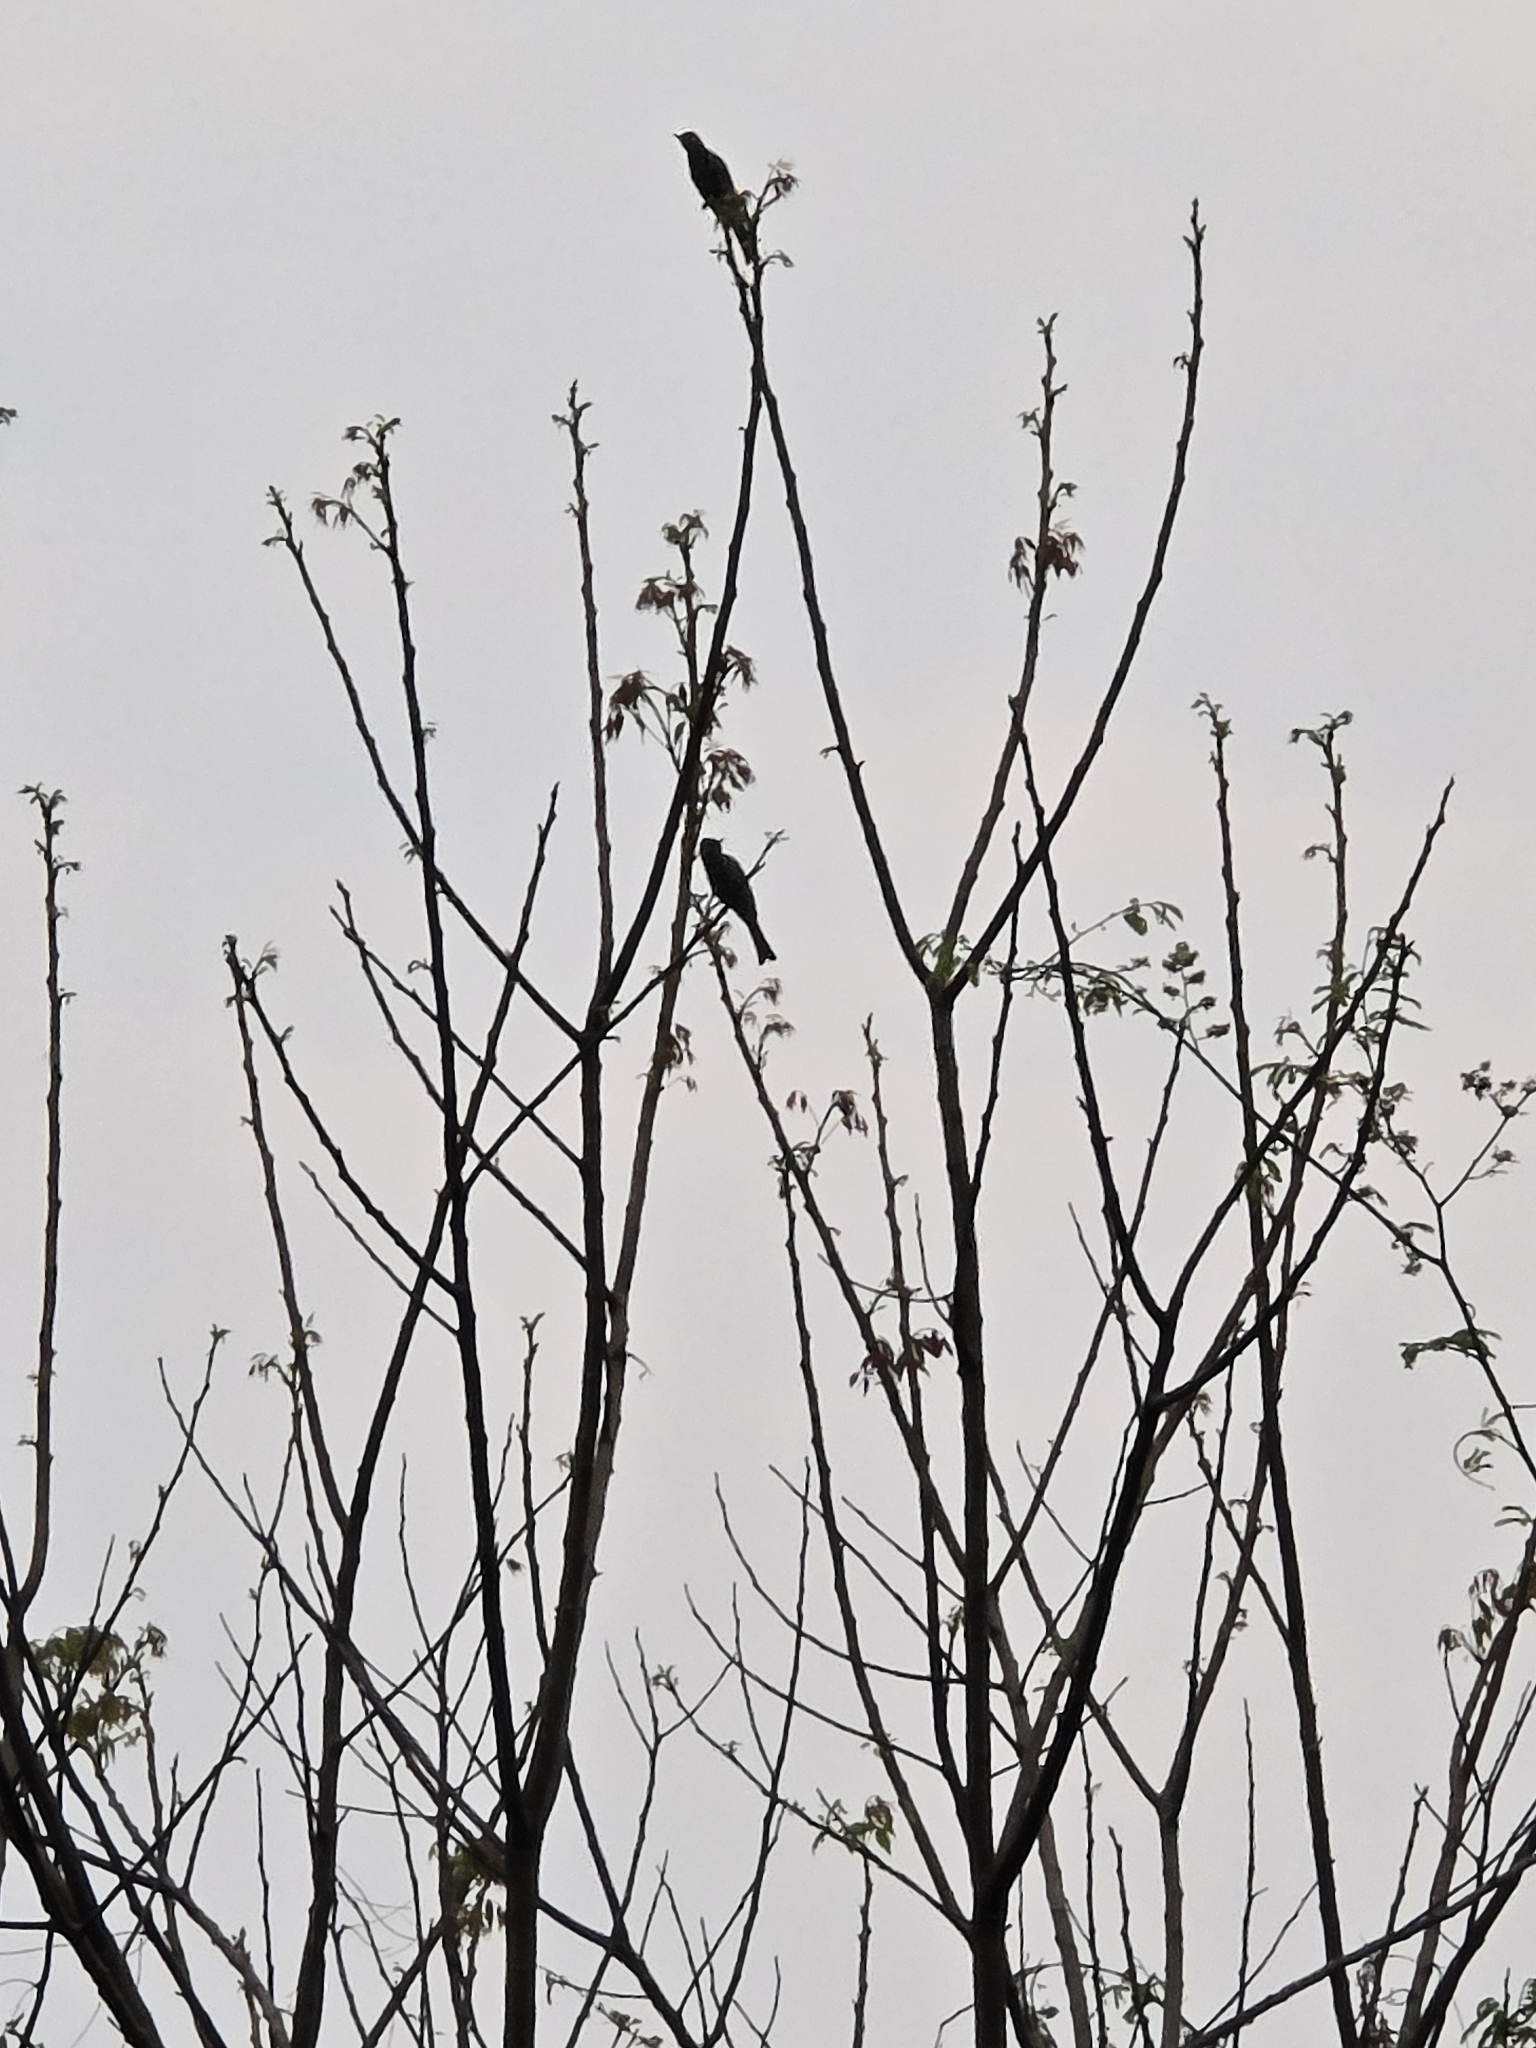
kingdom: Animalia
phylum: Chordata
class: Aves
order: Passeriformes
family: Pycnonotidae
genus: Hypsipetes
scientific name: Hypsipetes leucocephalus
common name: Black bulbul
